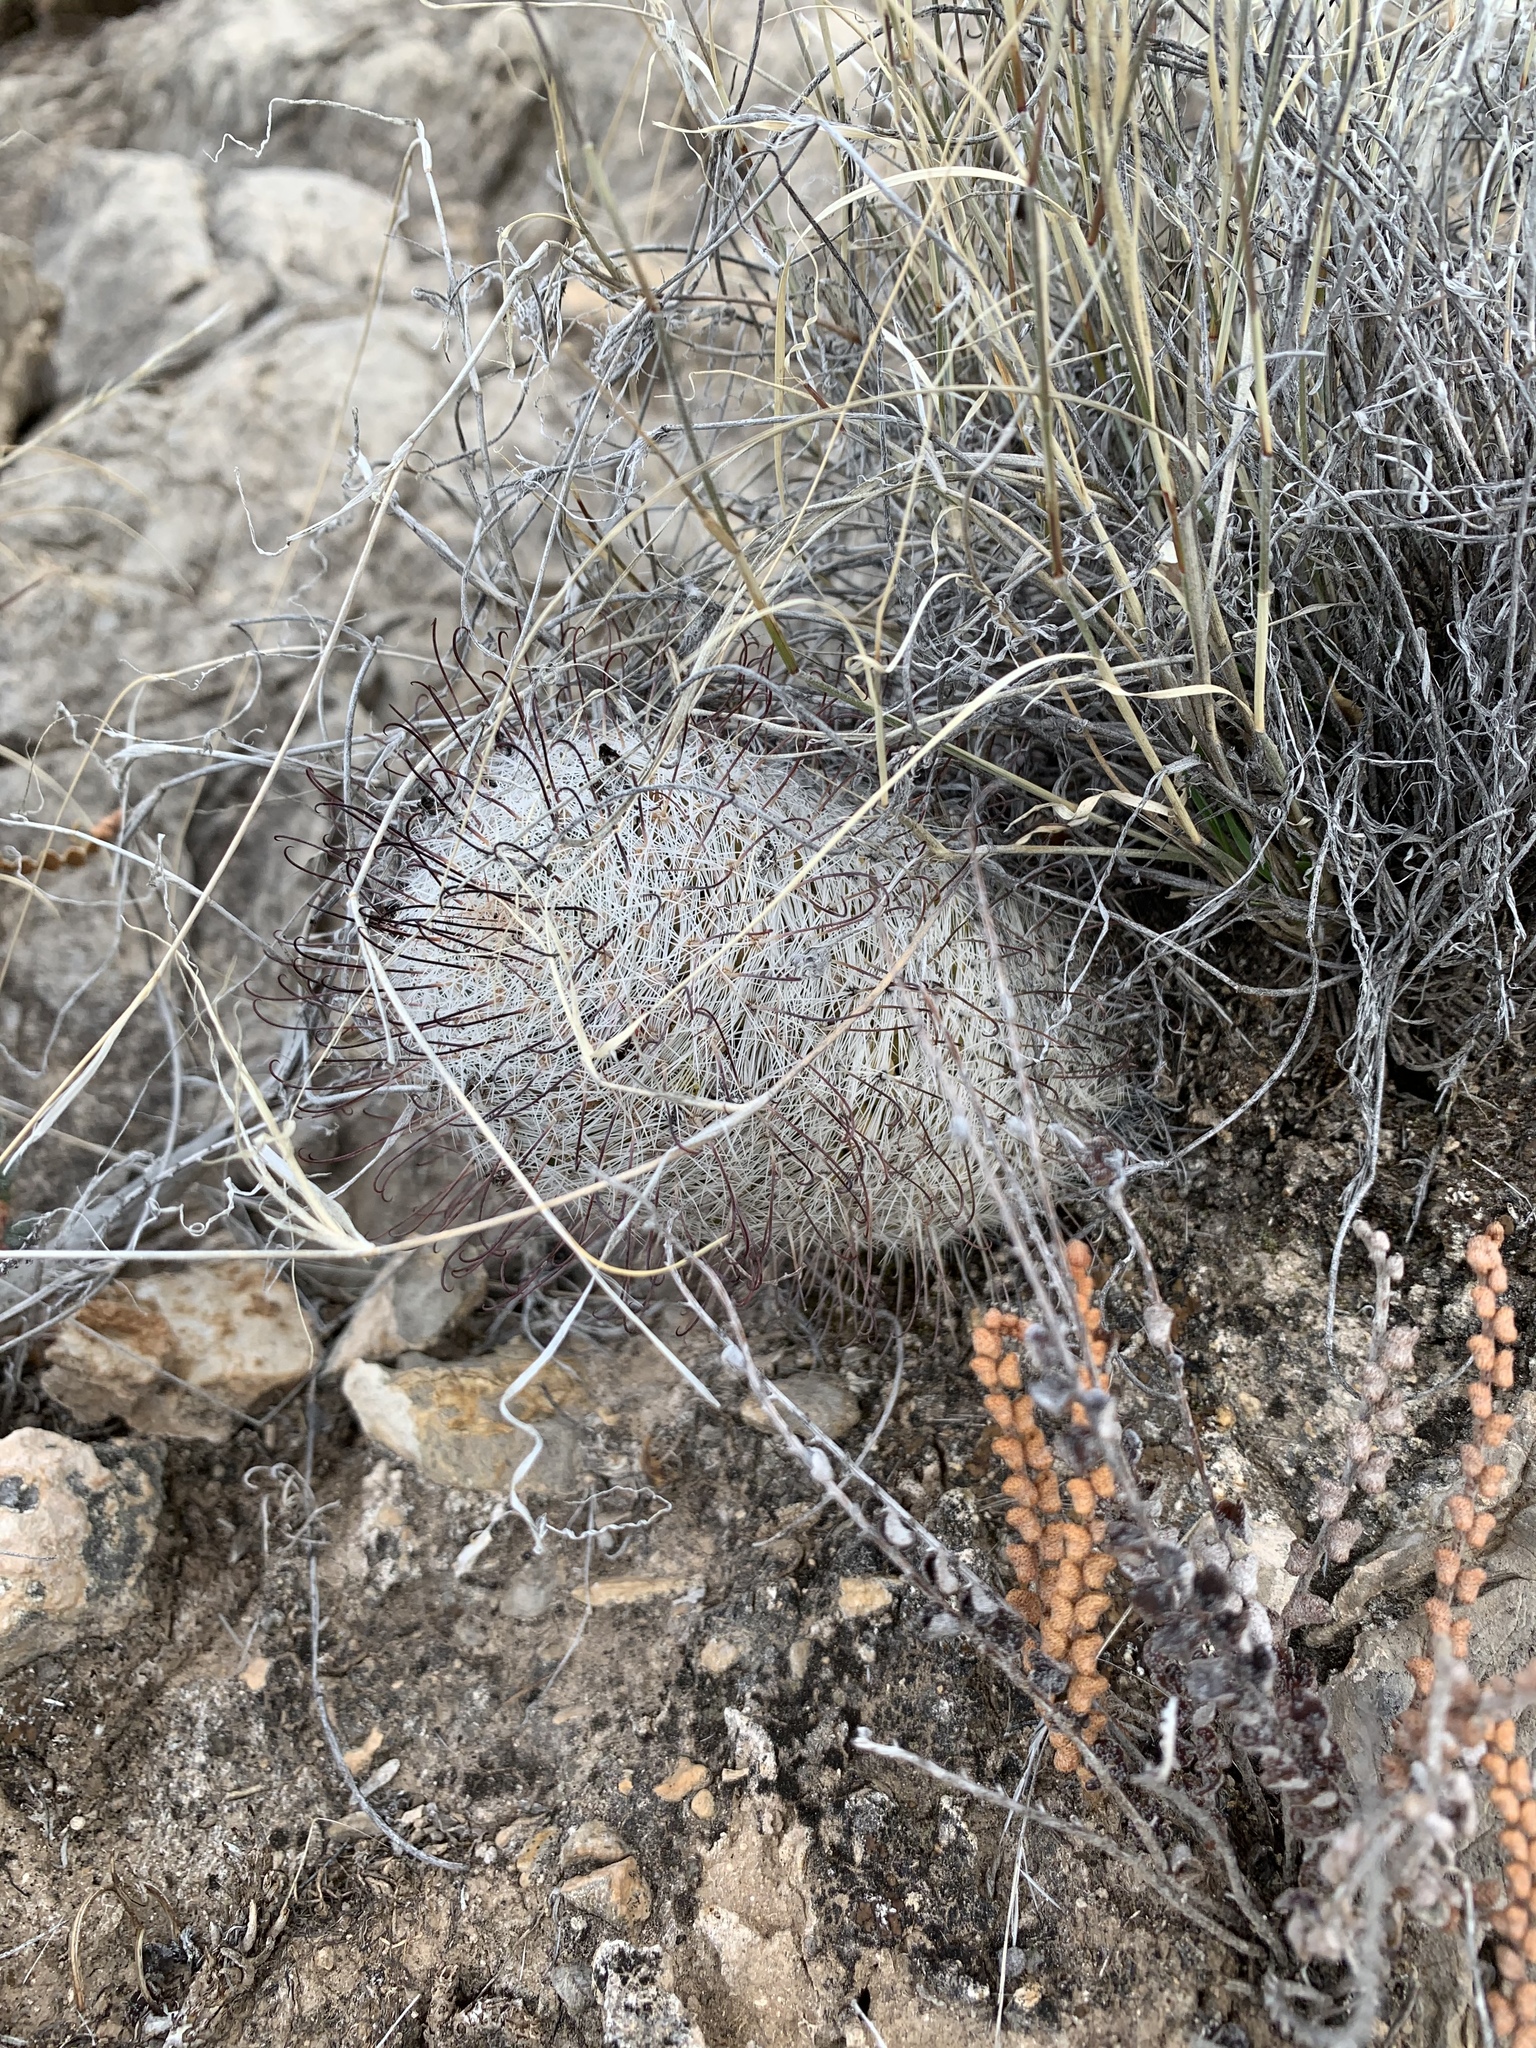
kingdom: Plantae
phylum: Tracheophyta
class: Magnoliopsida
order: Caryophyllales
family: Cactaceae
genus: Cochemiea
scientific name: Cochemiea grahamii
